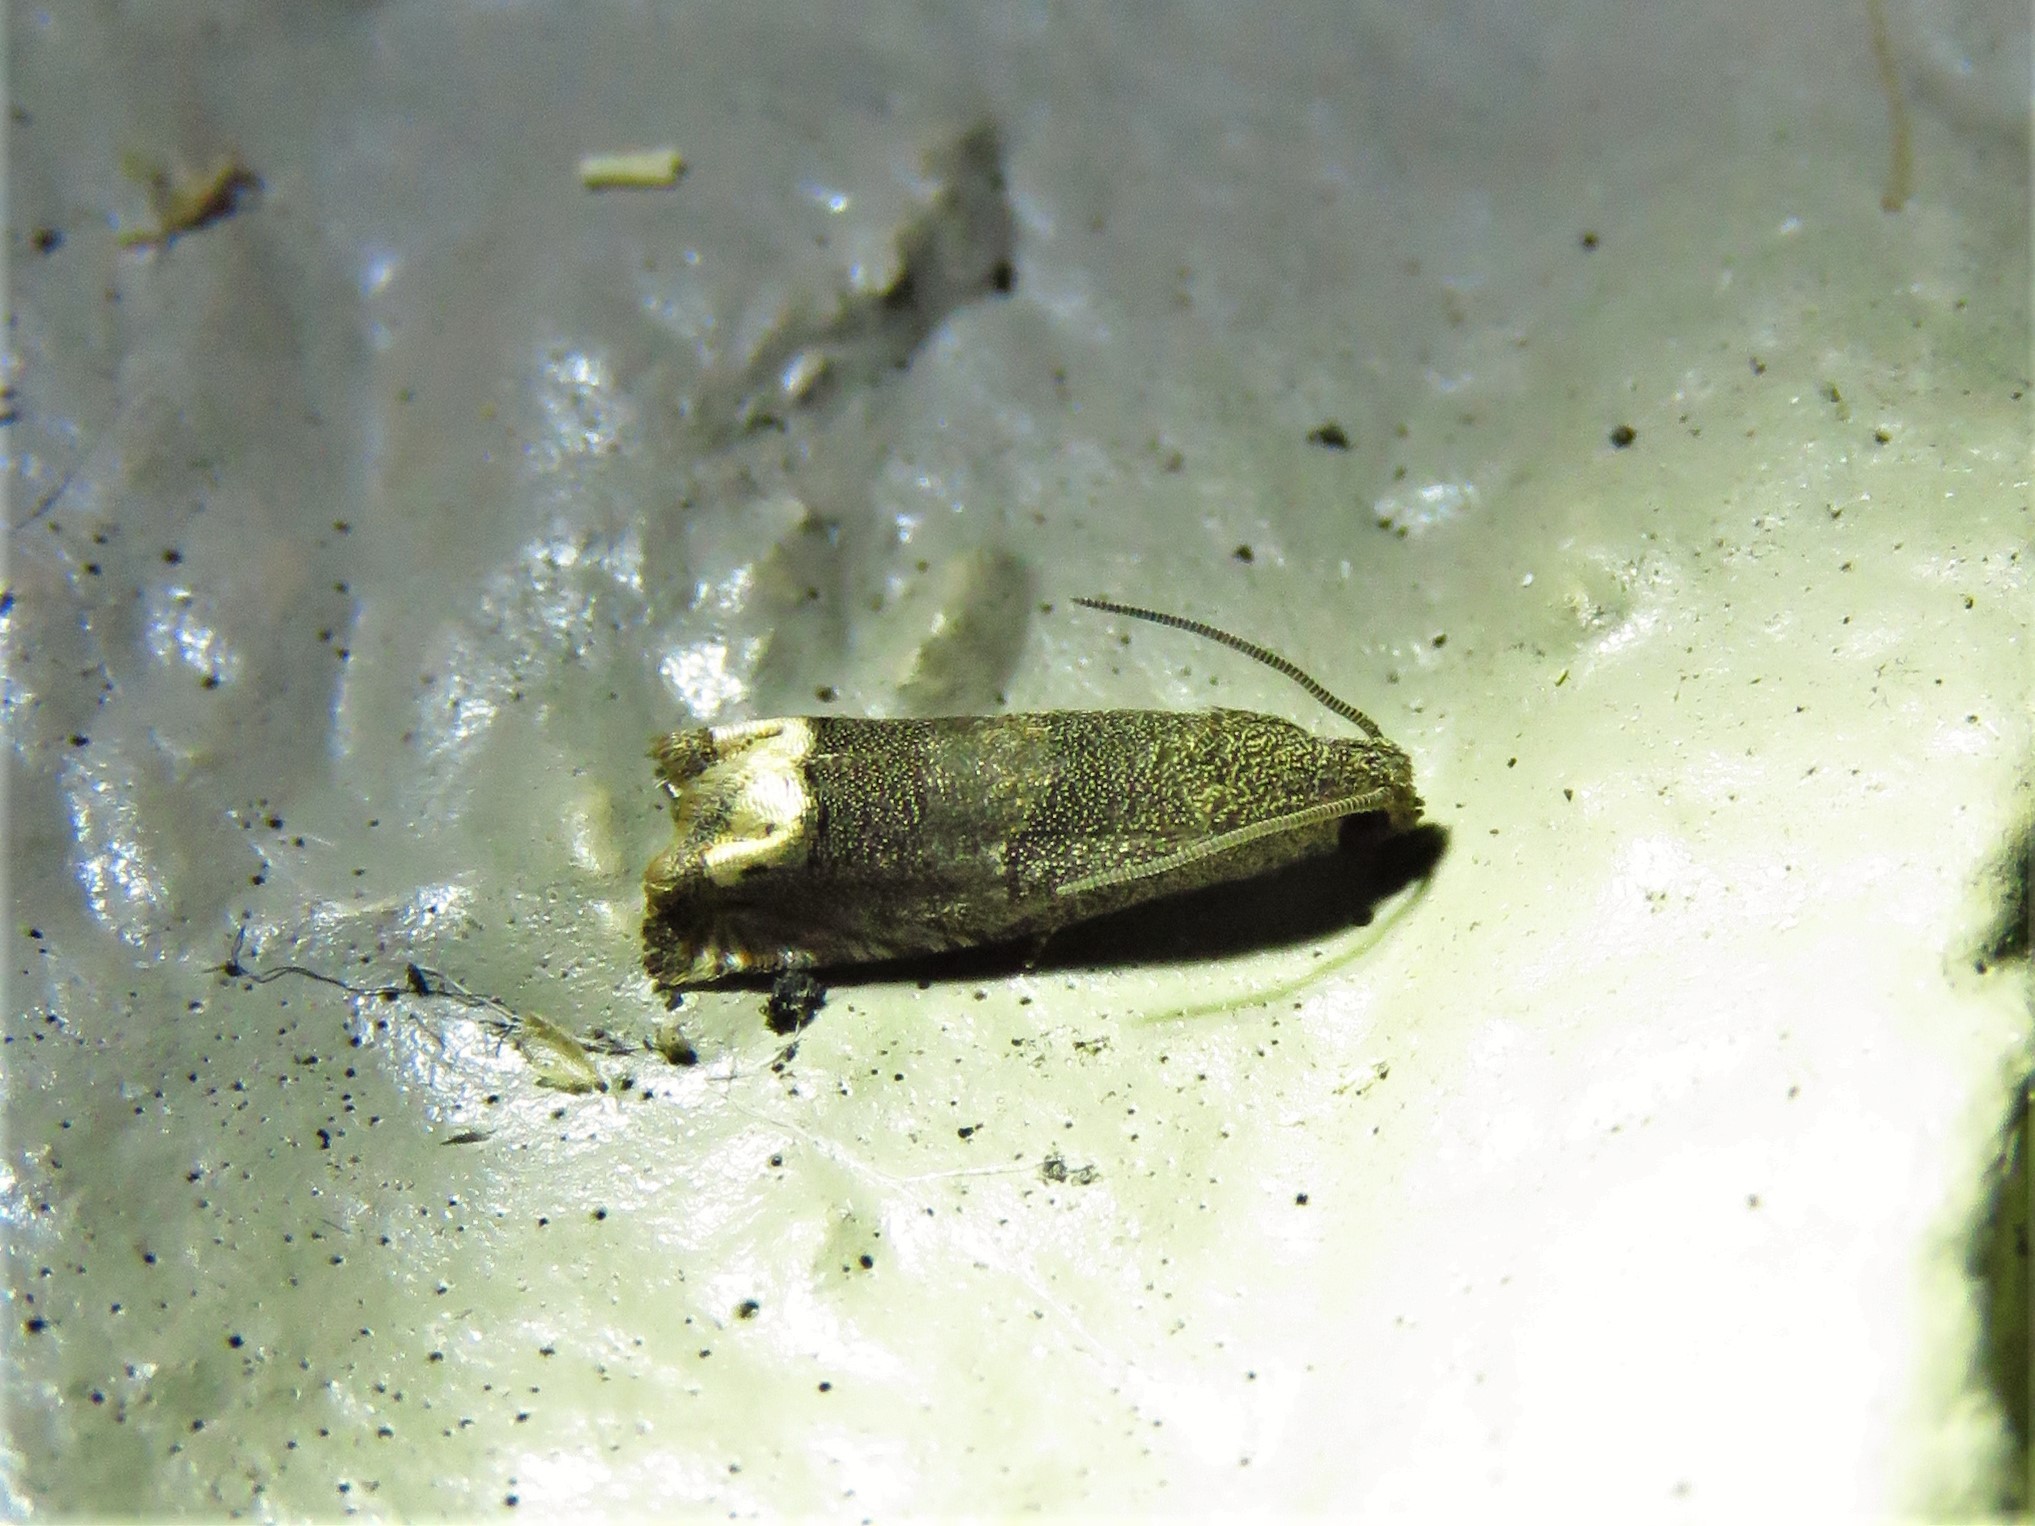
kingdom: Animalia
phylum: Arthropoda
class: Insecta
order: Lepidoptera
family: Tortricidae
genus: Epiblema
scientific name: Epiblema strenuana
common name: Ragweed borer moth
